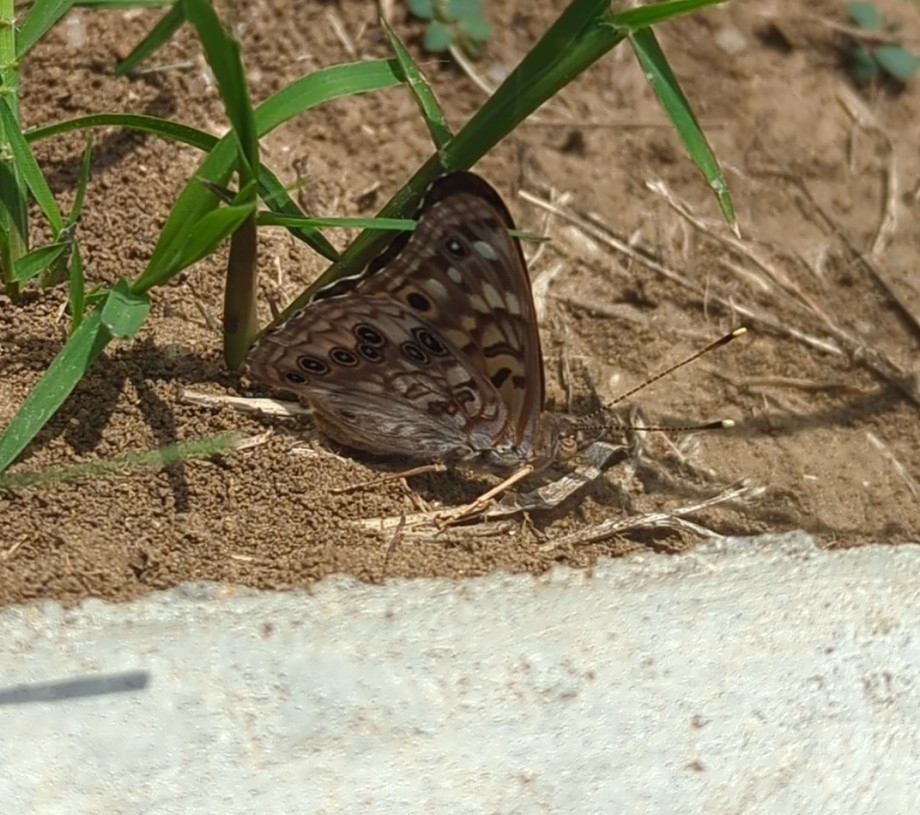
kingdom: Animalia
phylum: Arthropoda
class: Insecta
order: Lepidoptera
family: Nymphalidae
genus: Asterocampa
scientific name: Asterocampa celtis
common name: Hackberry emperor
